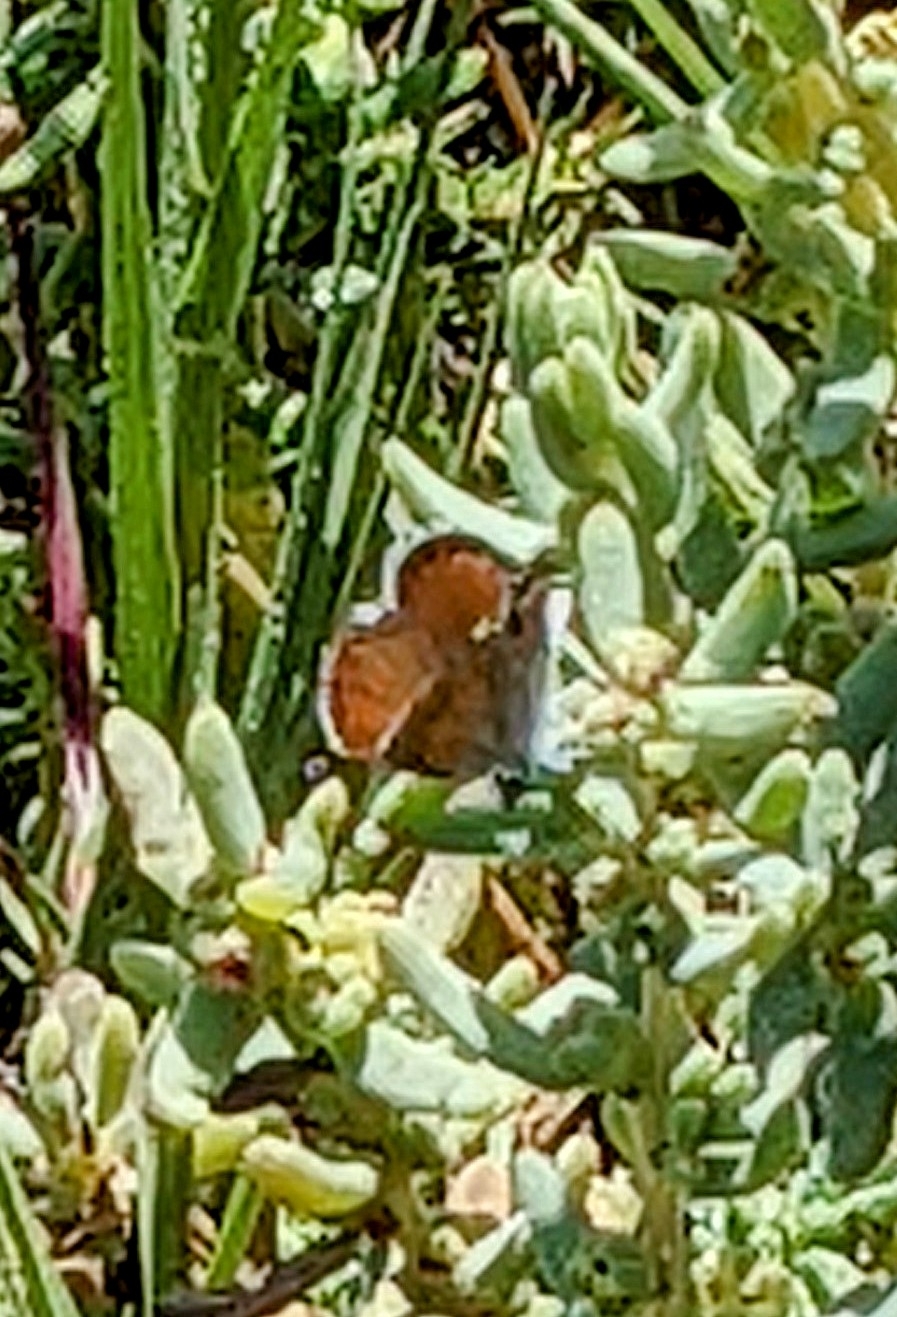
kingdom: Animalia
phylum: Arthropoda
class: Insecta
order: Lepidoptera
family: Lycaenidae
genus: Brephidium
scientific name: Brephidium exilis
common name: Pygmy blue
